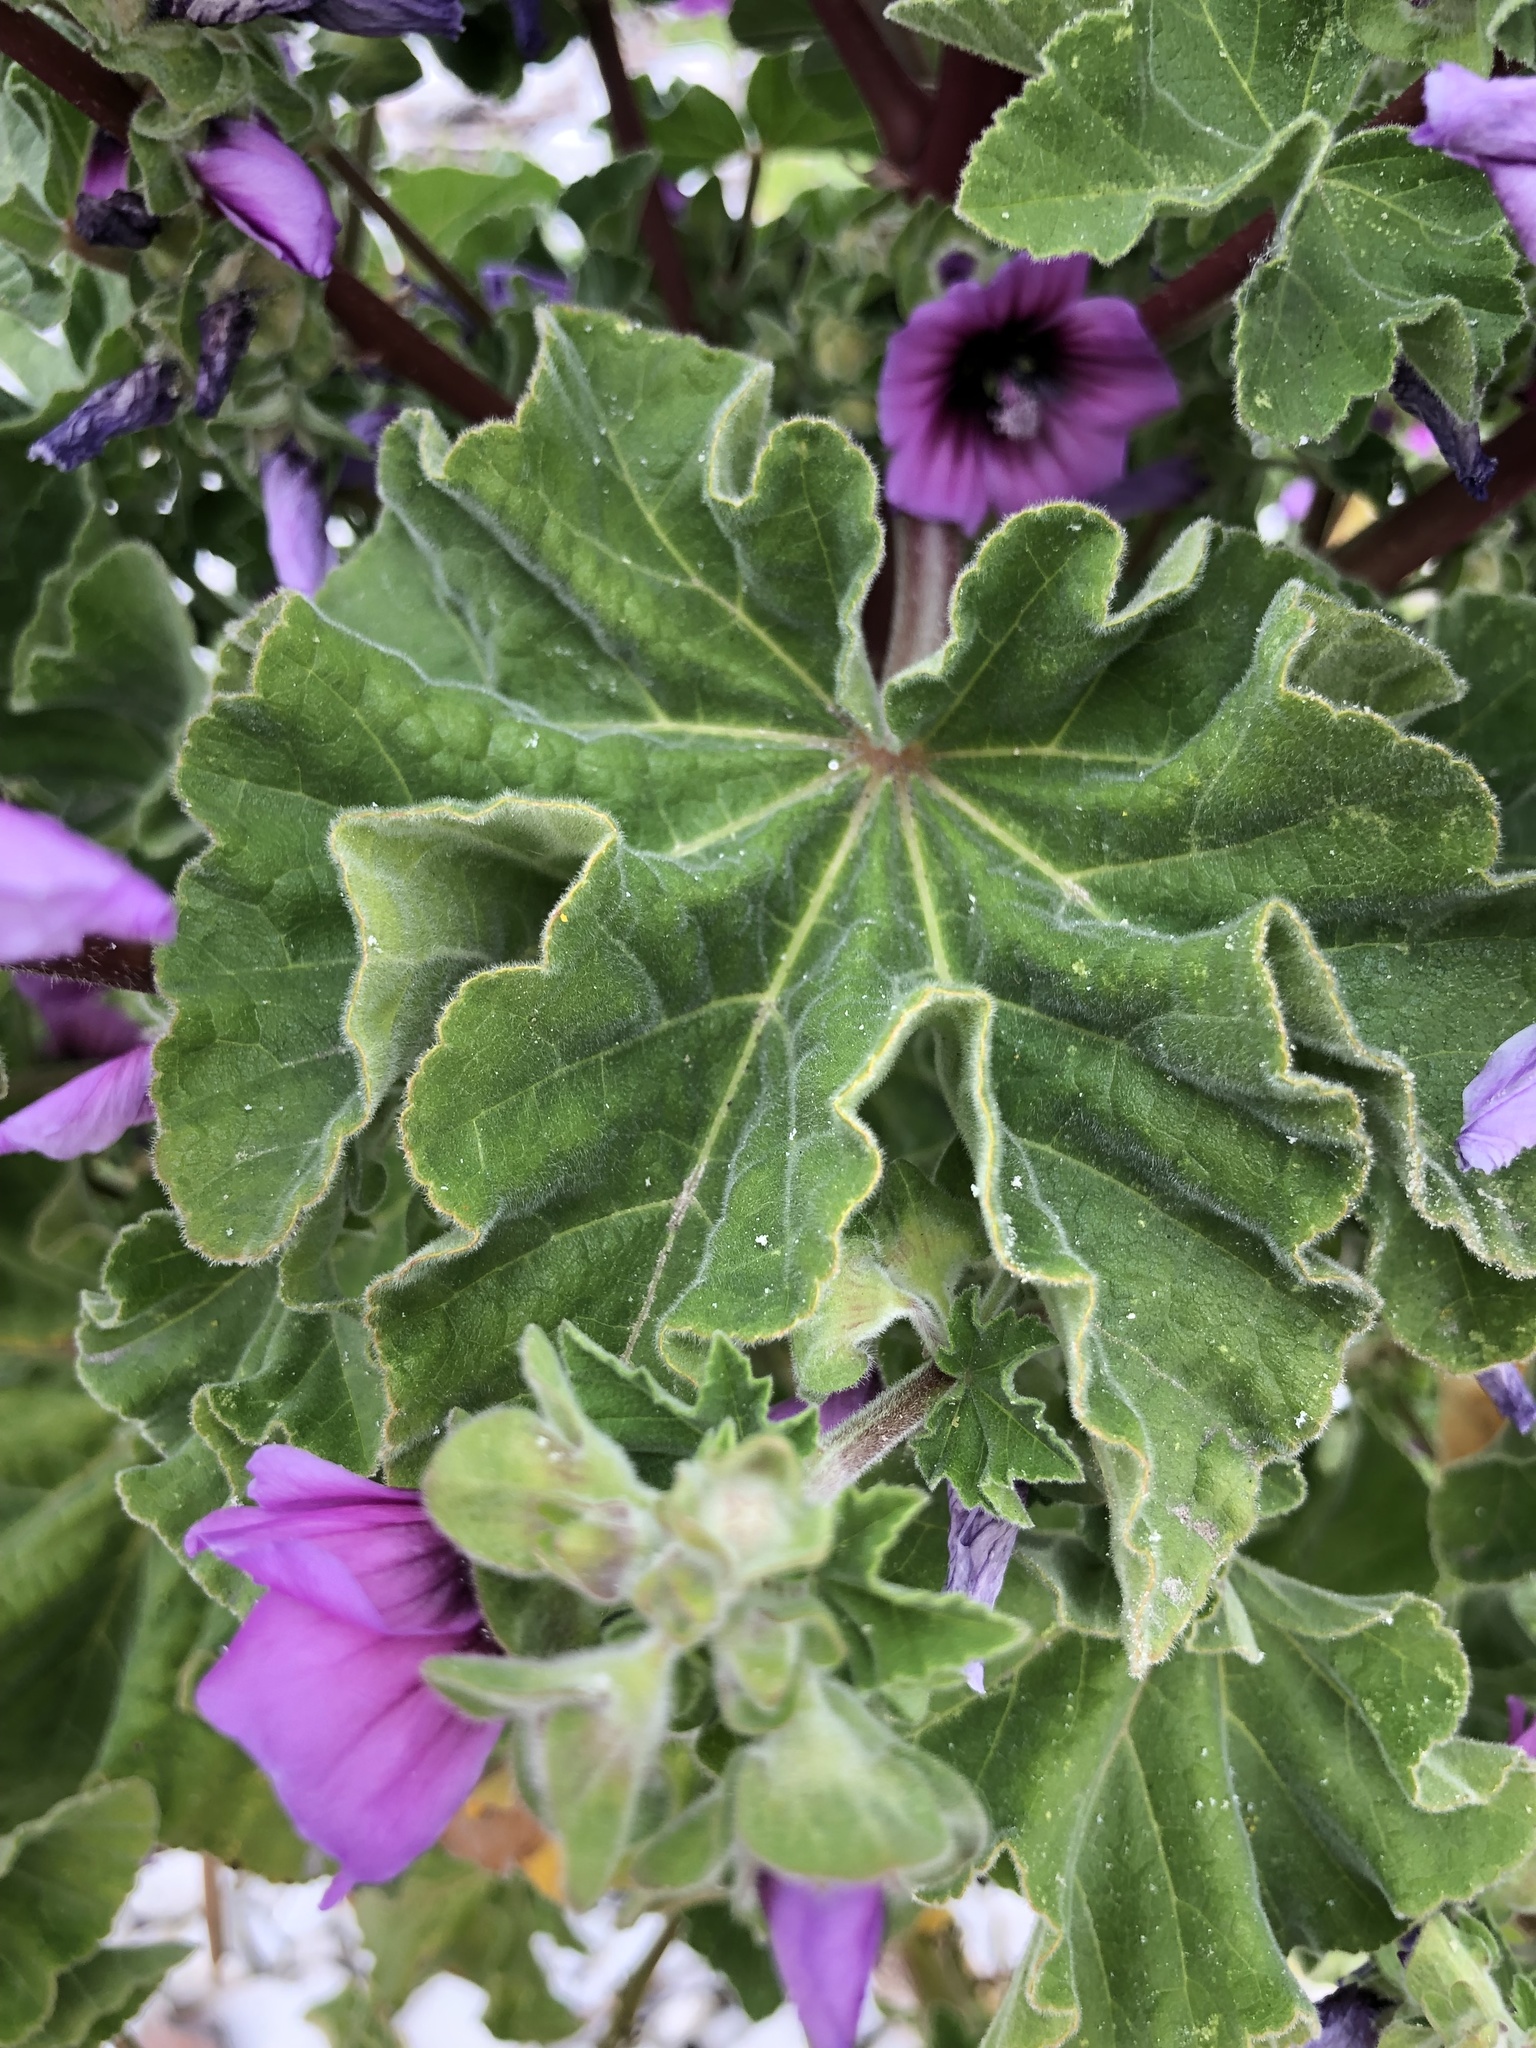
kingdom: Plantae
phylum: Tracheophyta
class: Magnoliopsida
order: Malvales
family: Malvaceae
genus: Malva
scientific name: Malva arborea
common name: Tree mallow
